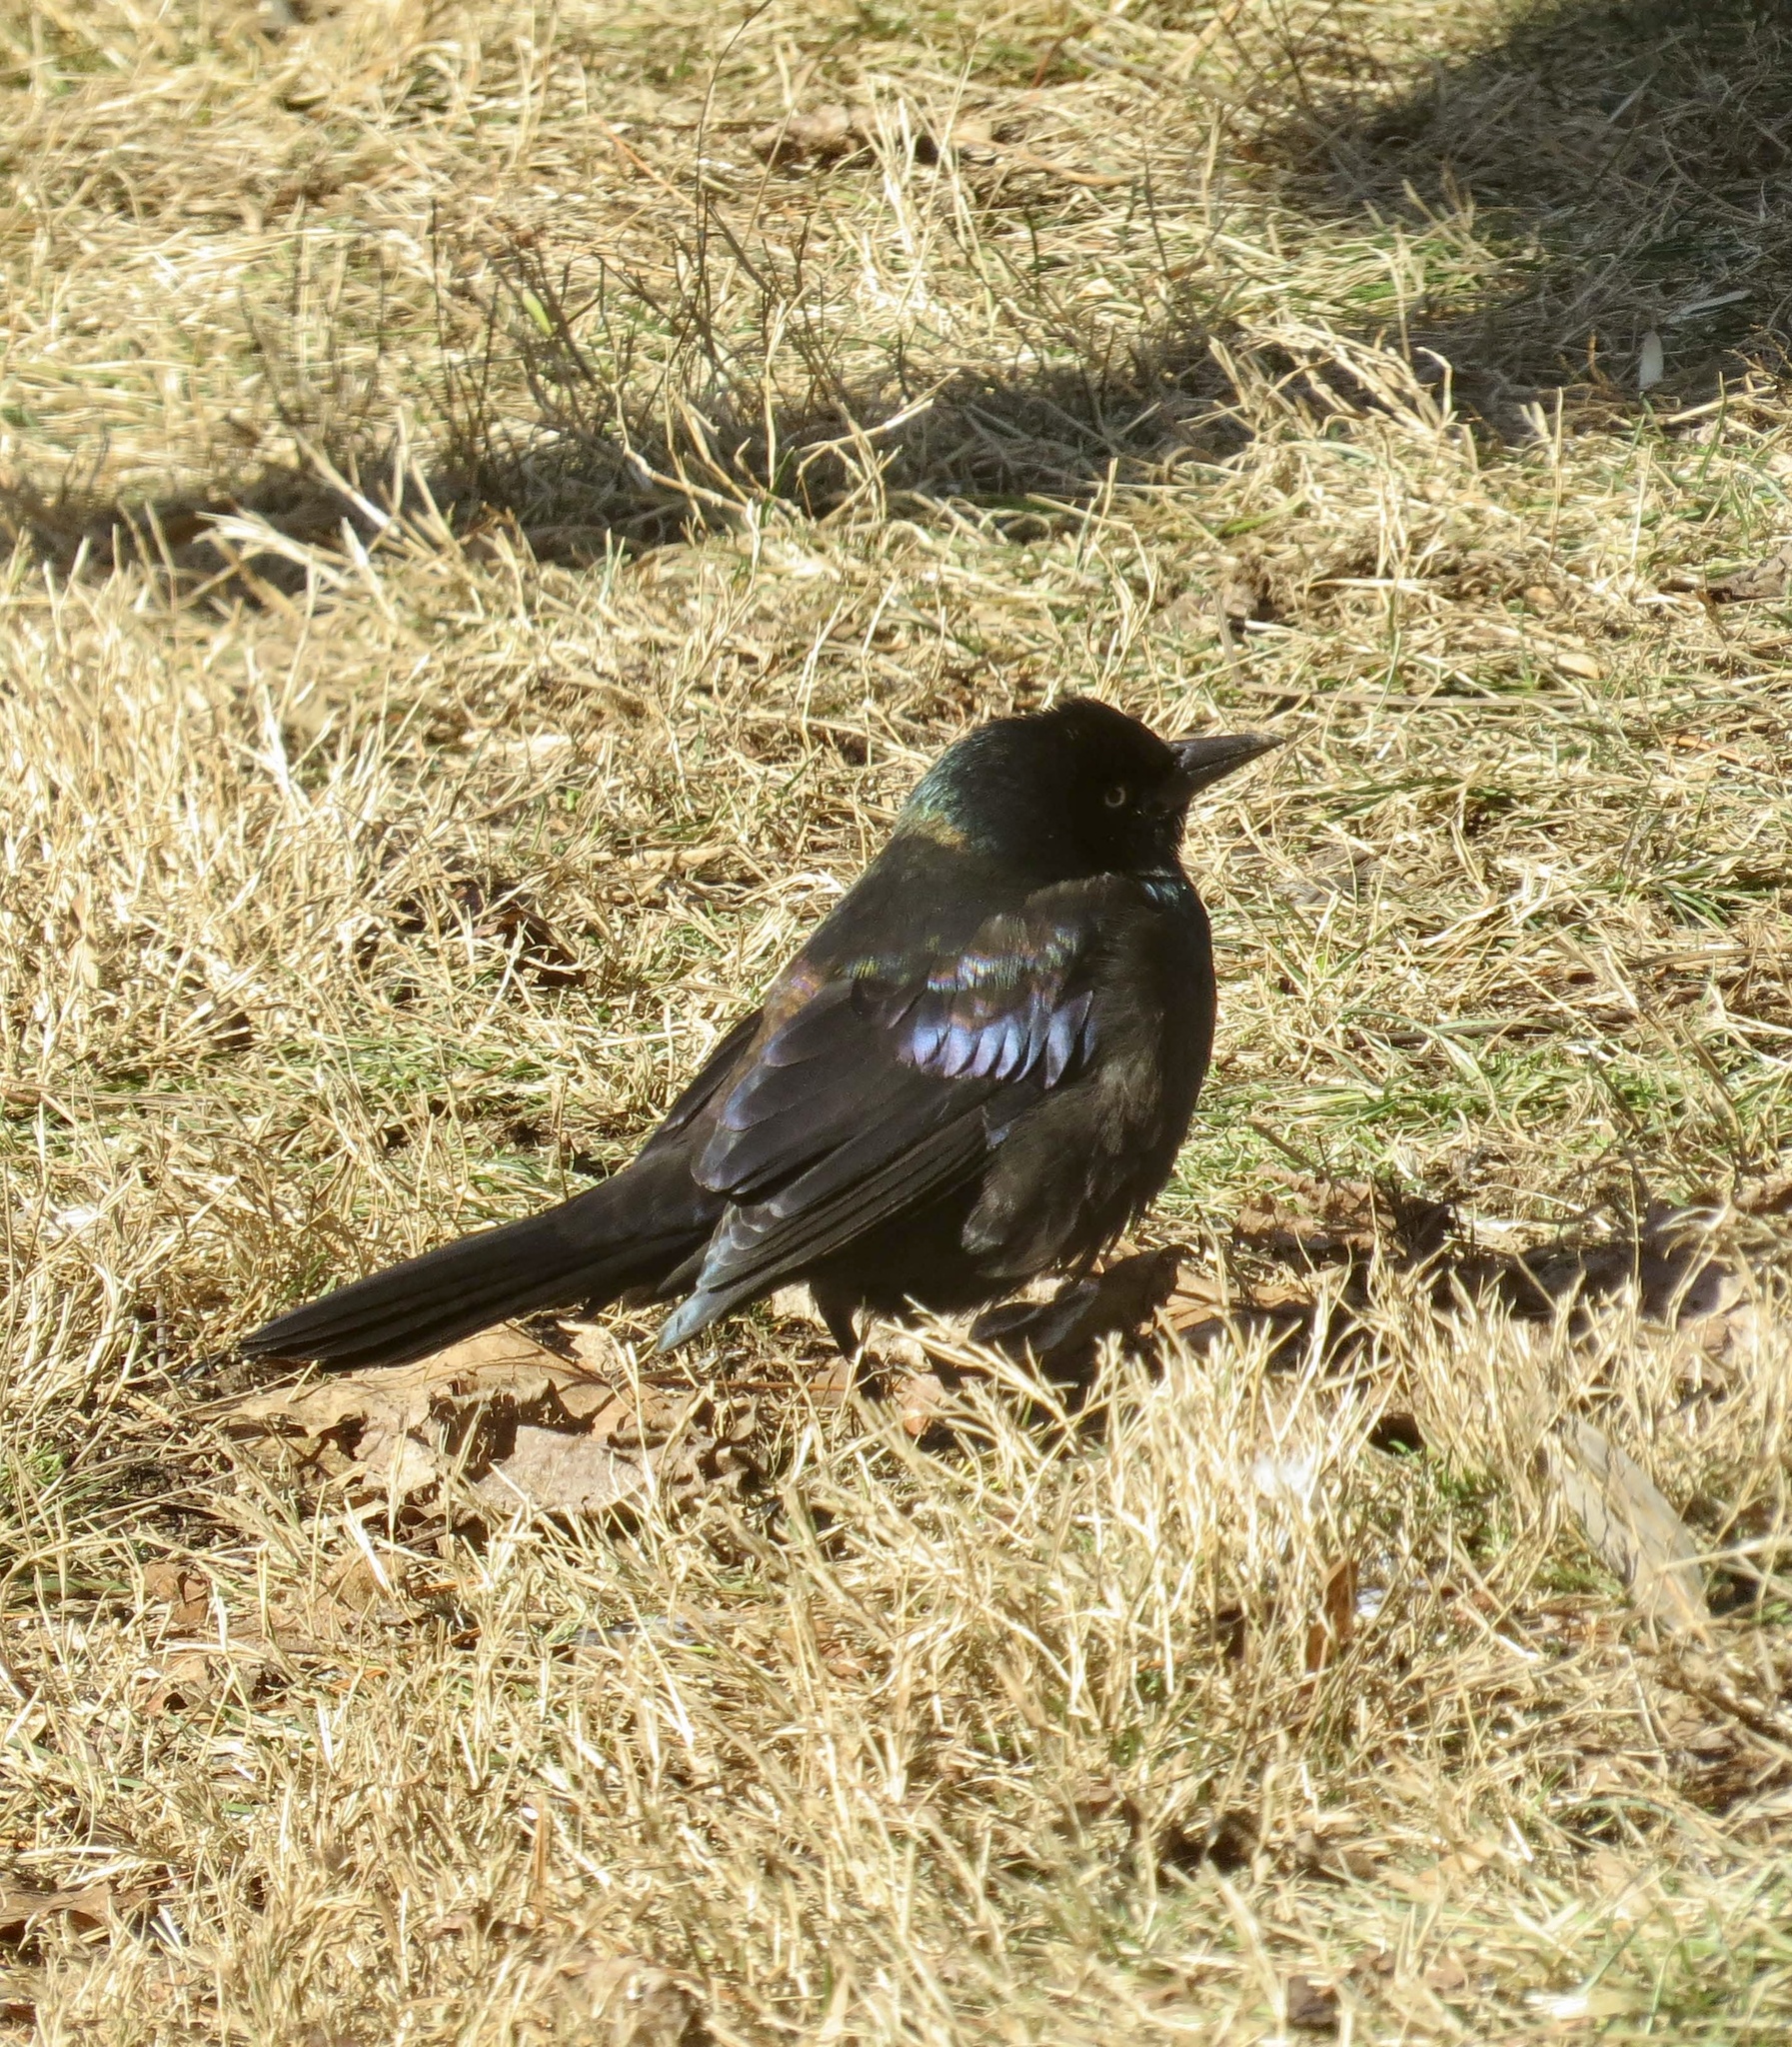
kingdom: Animalia
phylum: Chordata
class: Aves
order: Passeriformes
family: Icteridae
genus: Quiscalus
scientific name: Quiscalus quiscula
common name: Common grackle
